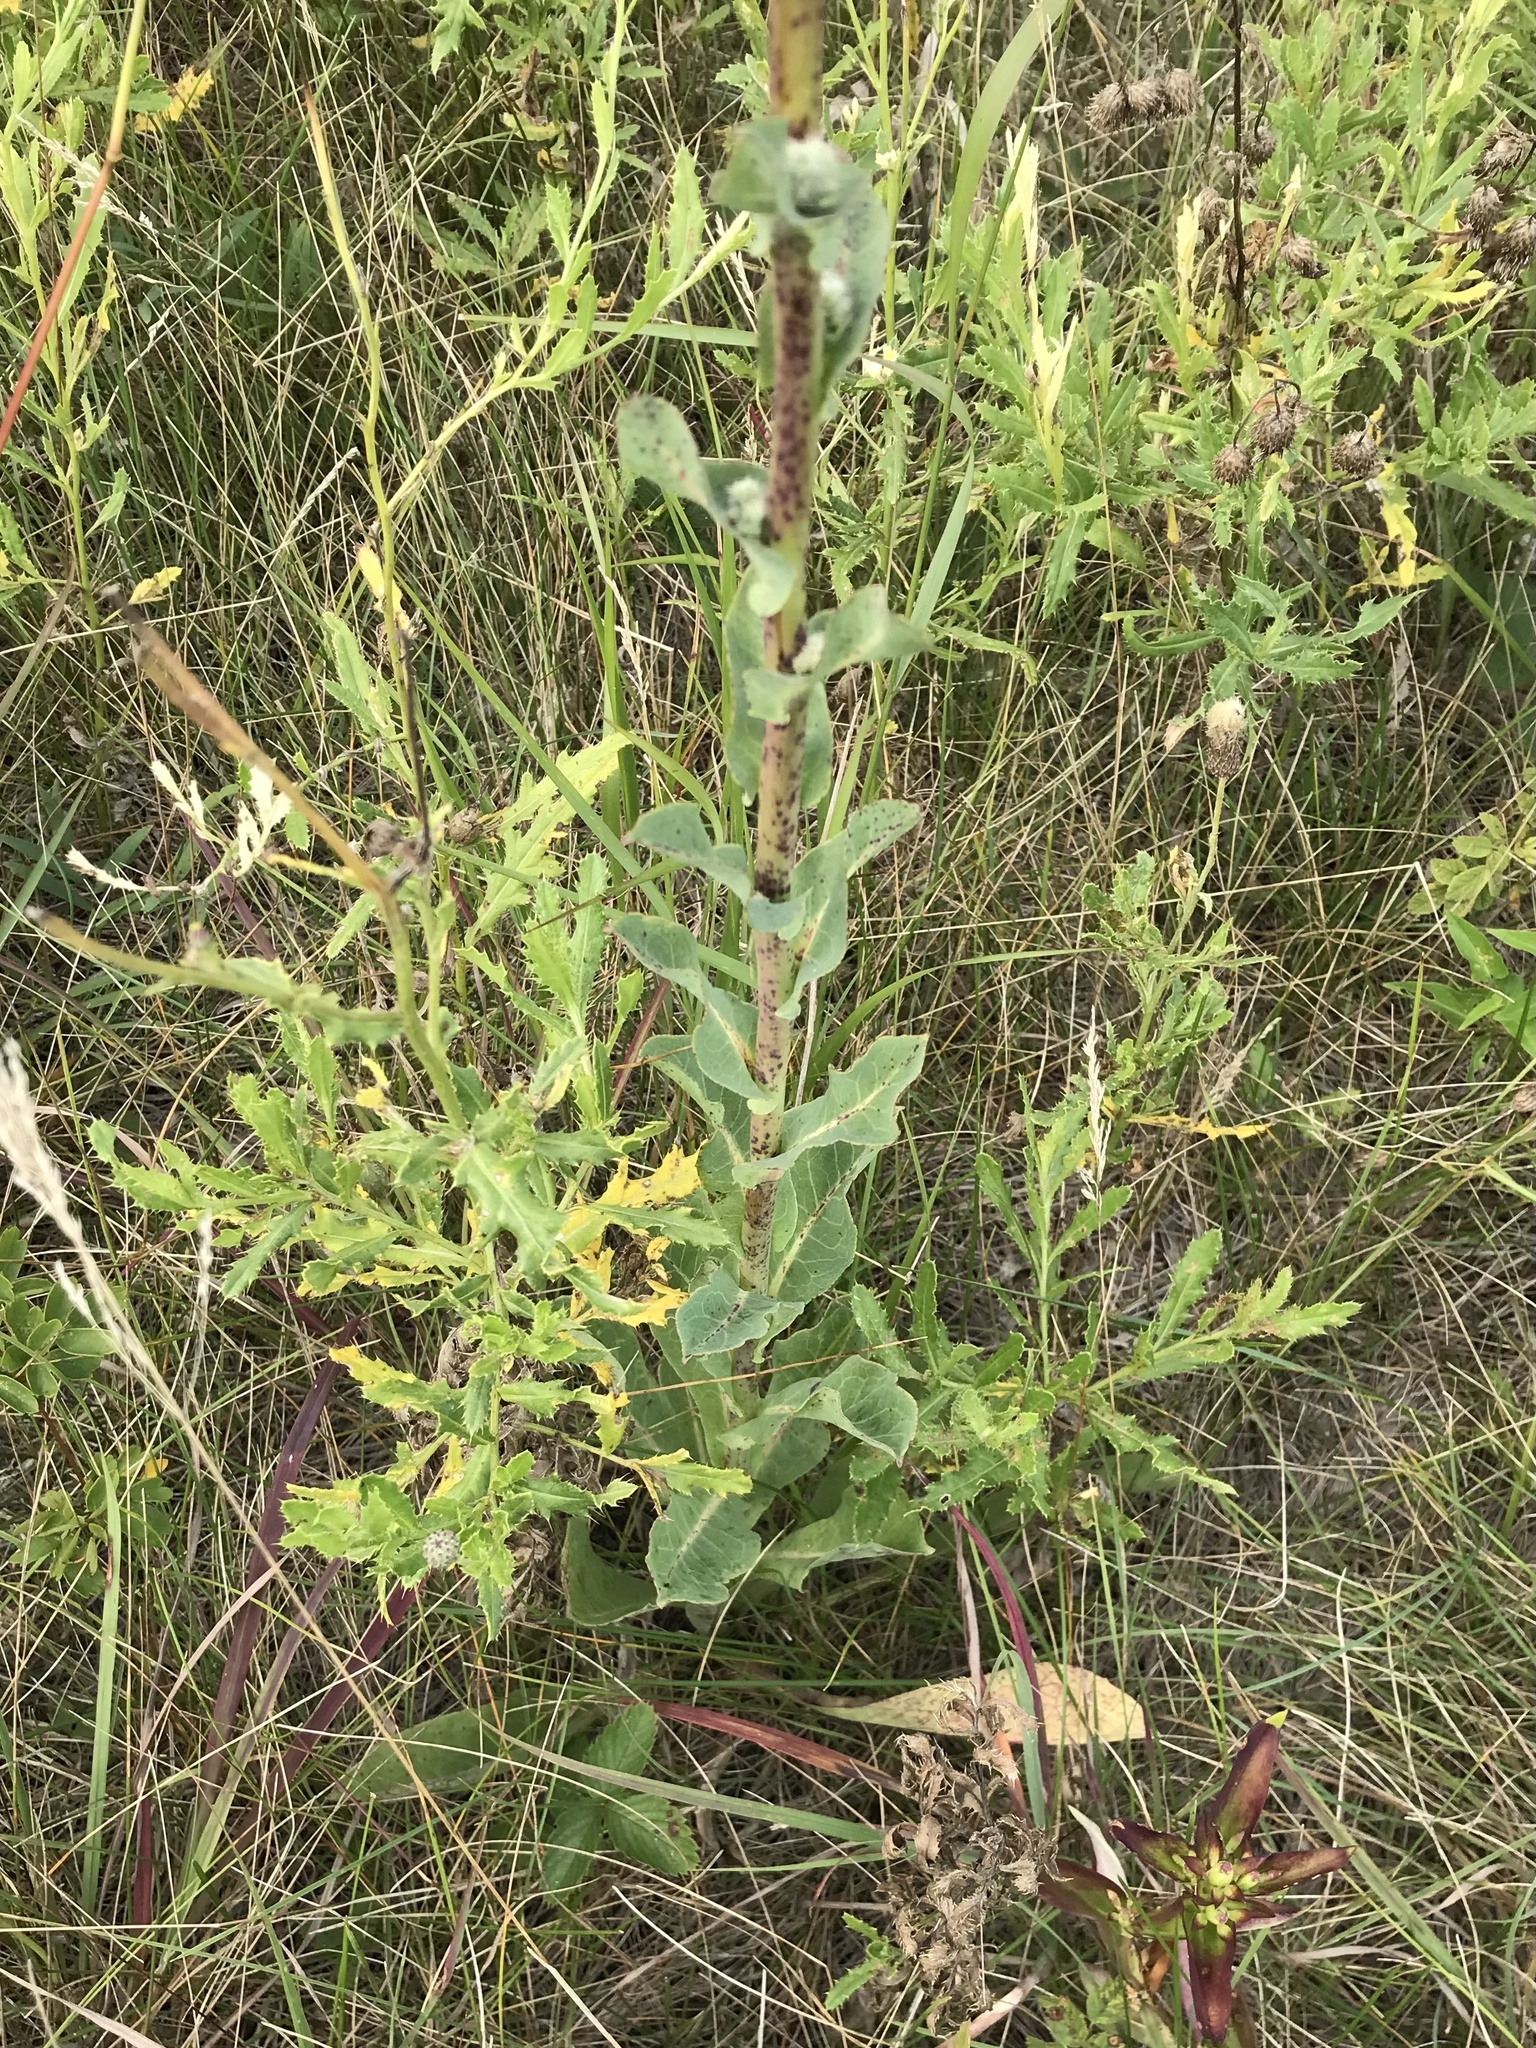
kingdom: Plantae
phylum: Tracheophyta
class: Magnoliopsida
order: Asterales
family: Asteraceae
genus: Nabalus
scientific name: Nabalus racemosus
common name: Glaucous white lettuce
